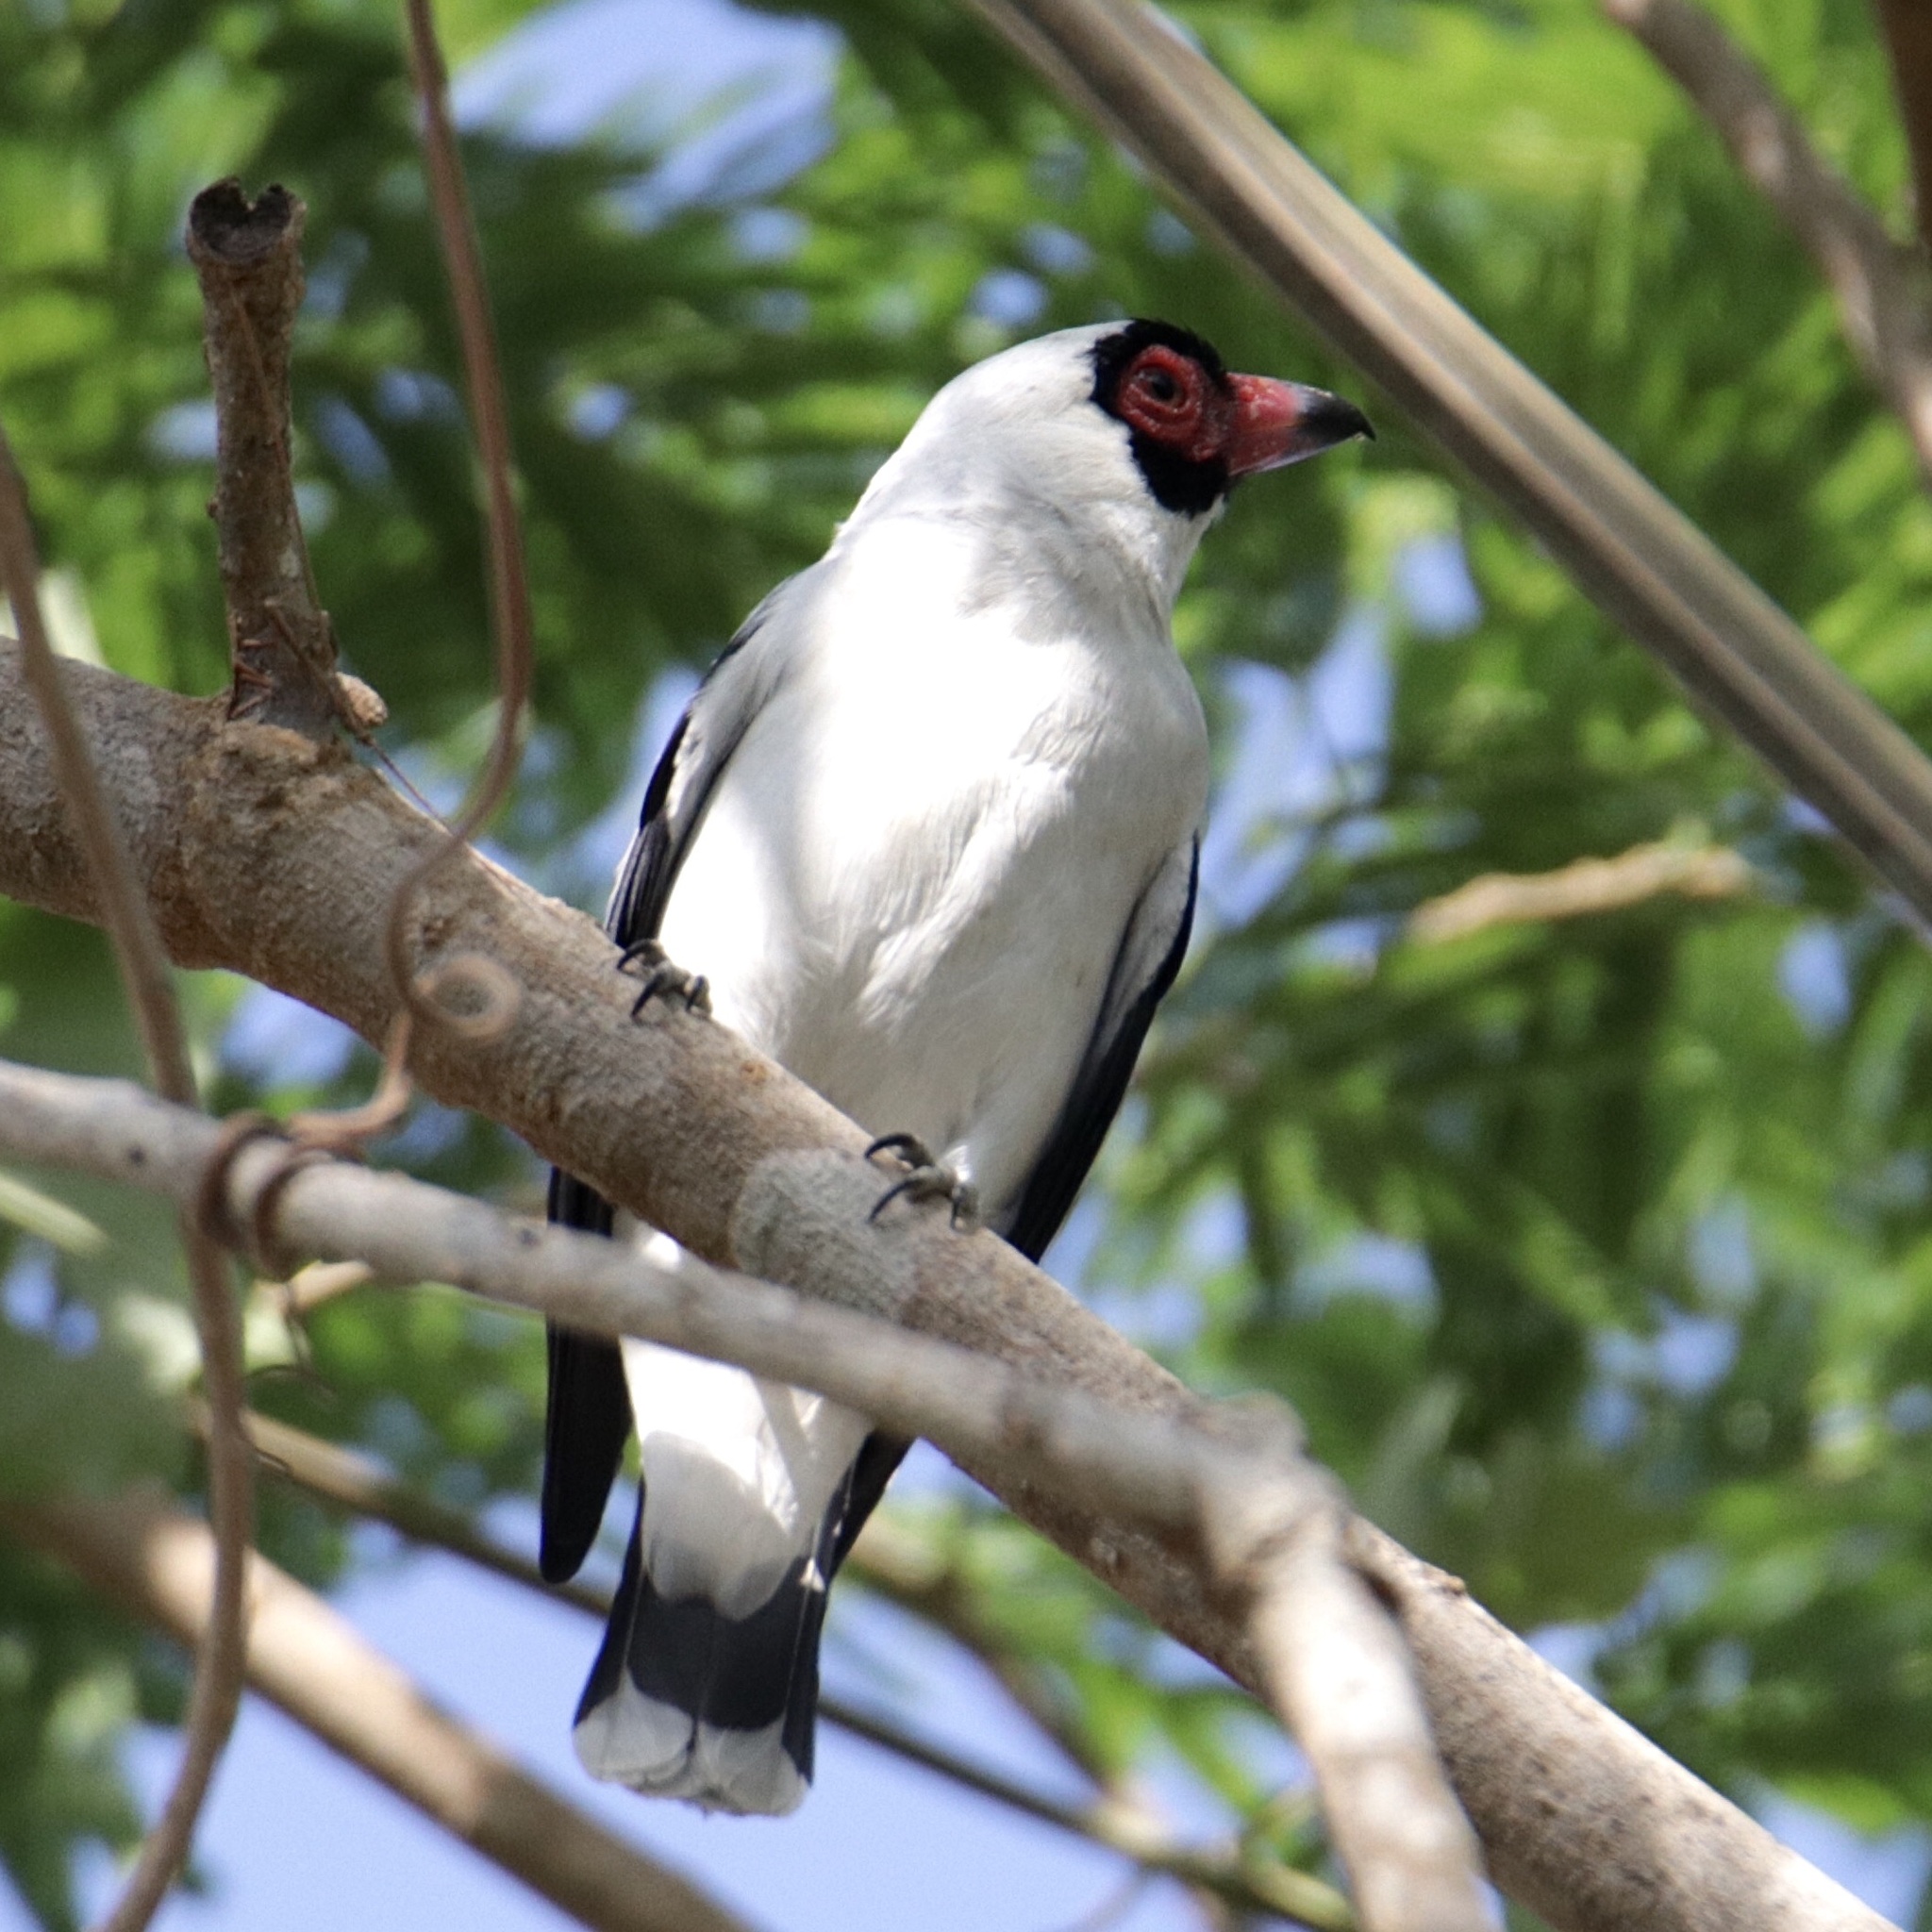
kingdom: Animalia
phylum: Chordata
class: Aves
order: Passeriformes
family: Cotingidae
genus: Tityra
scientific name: Tityra semifasciata
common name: Masked tityra
